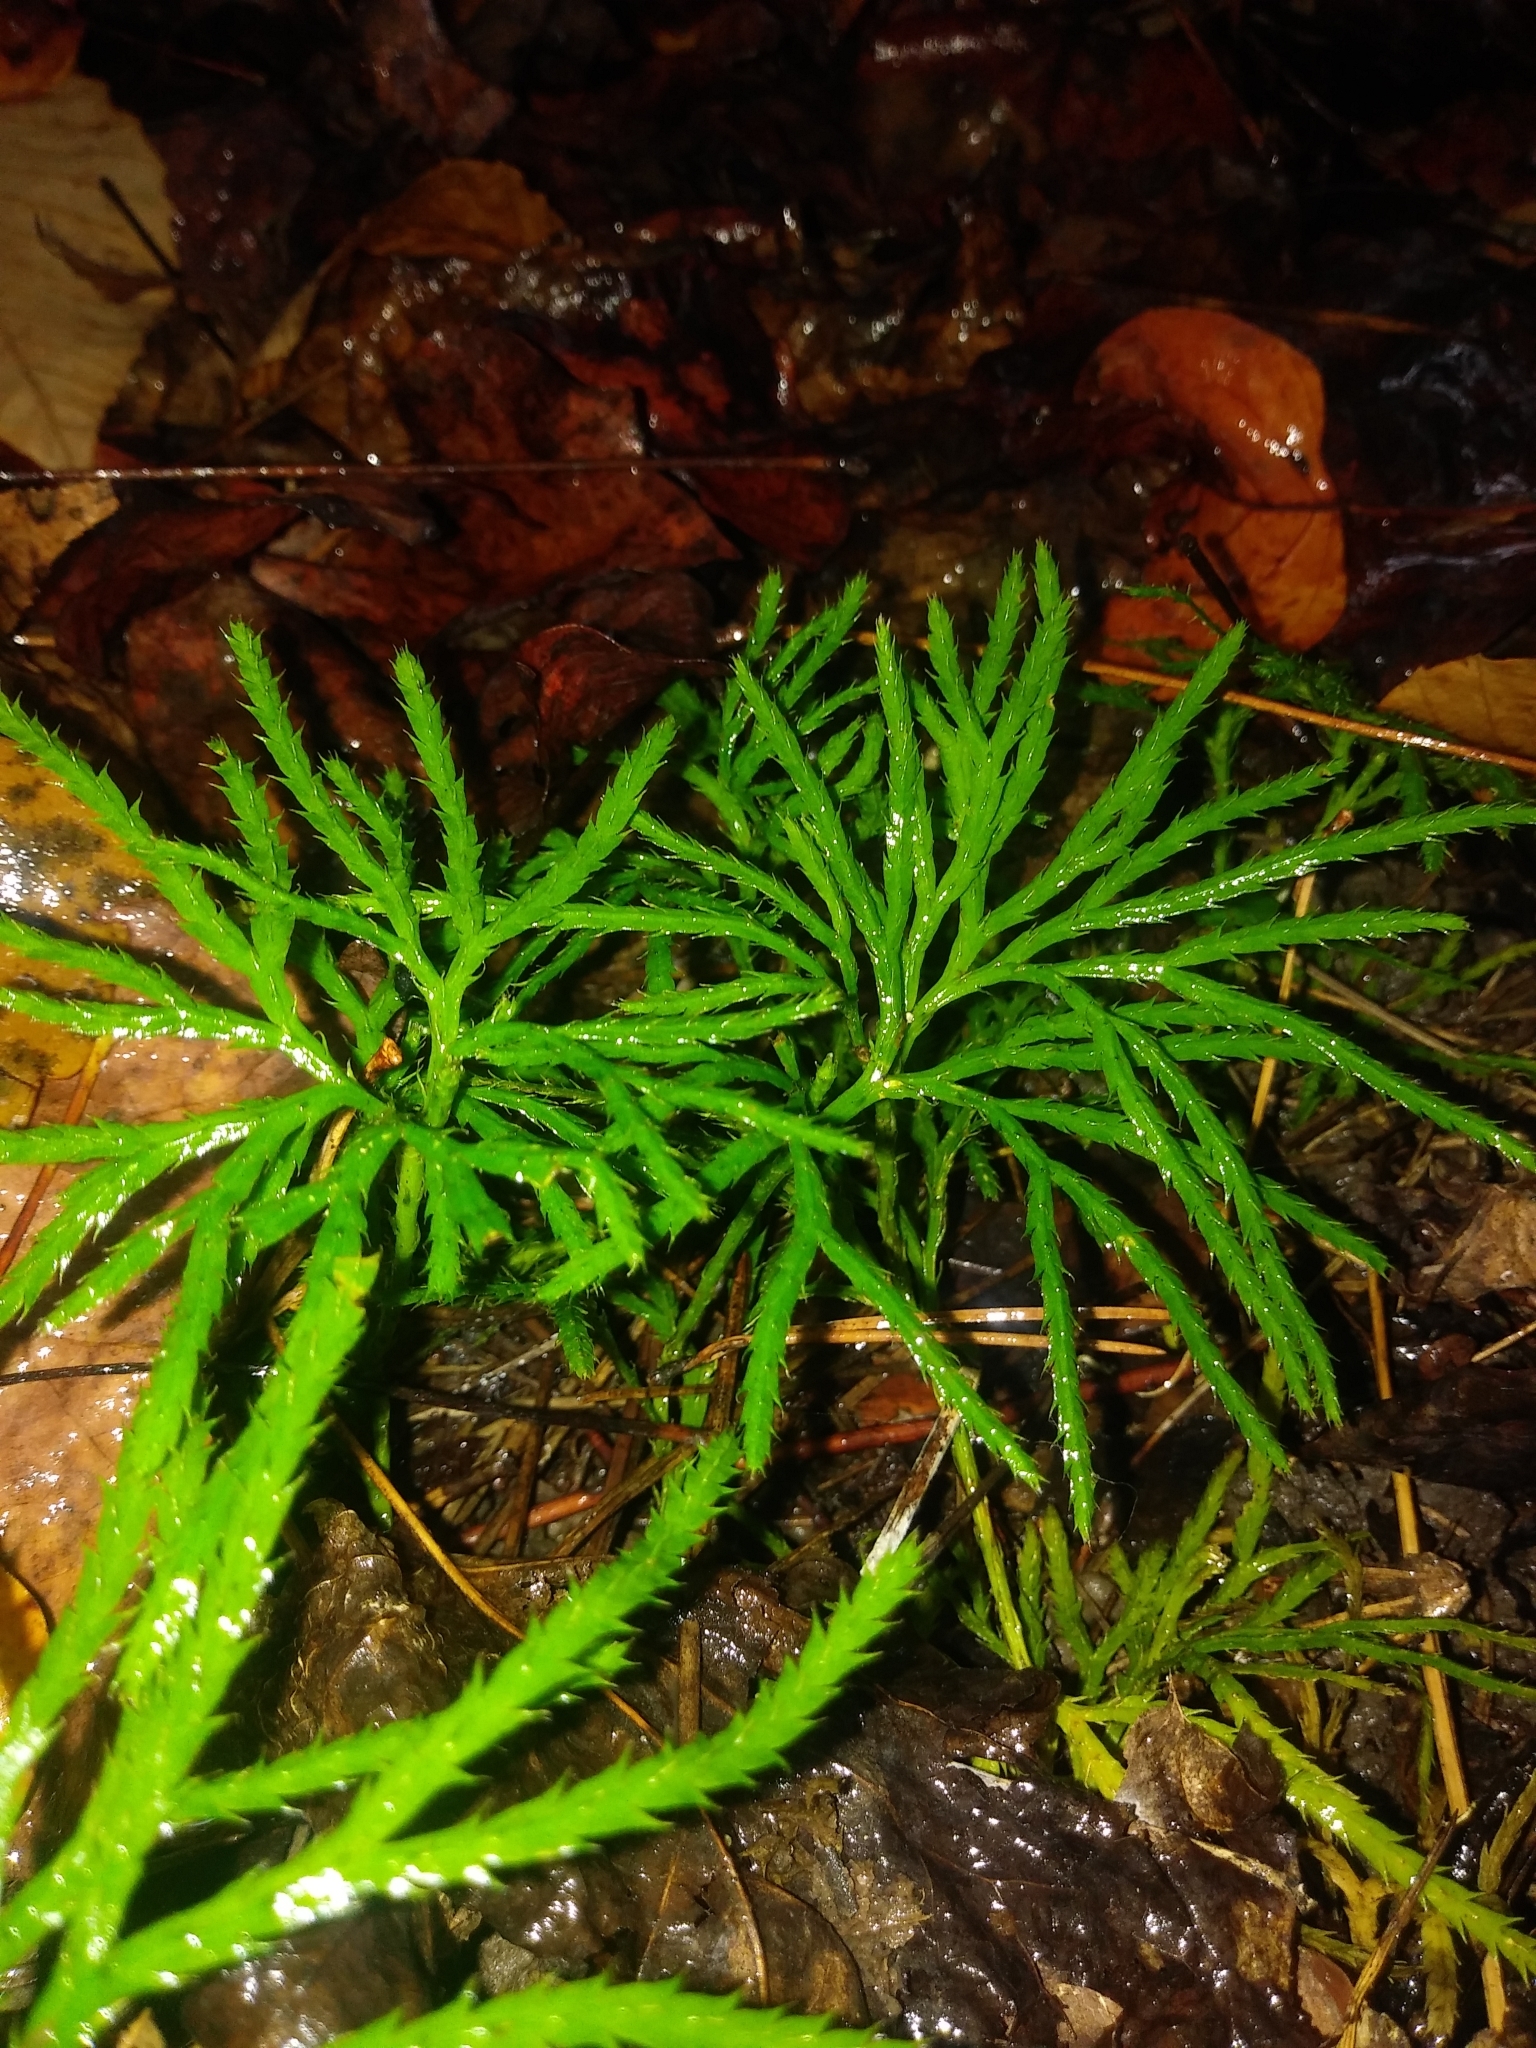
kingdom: Plantae
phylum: Tracheophyta
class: Lycopodiopsida
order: Lycopodiales
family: Lycopodiaceae
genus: Diphasiastrum
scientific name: Diphasiastrum digitatum
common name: Southern running-pine
